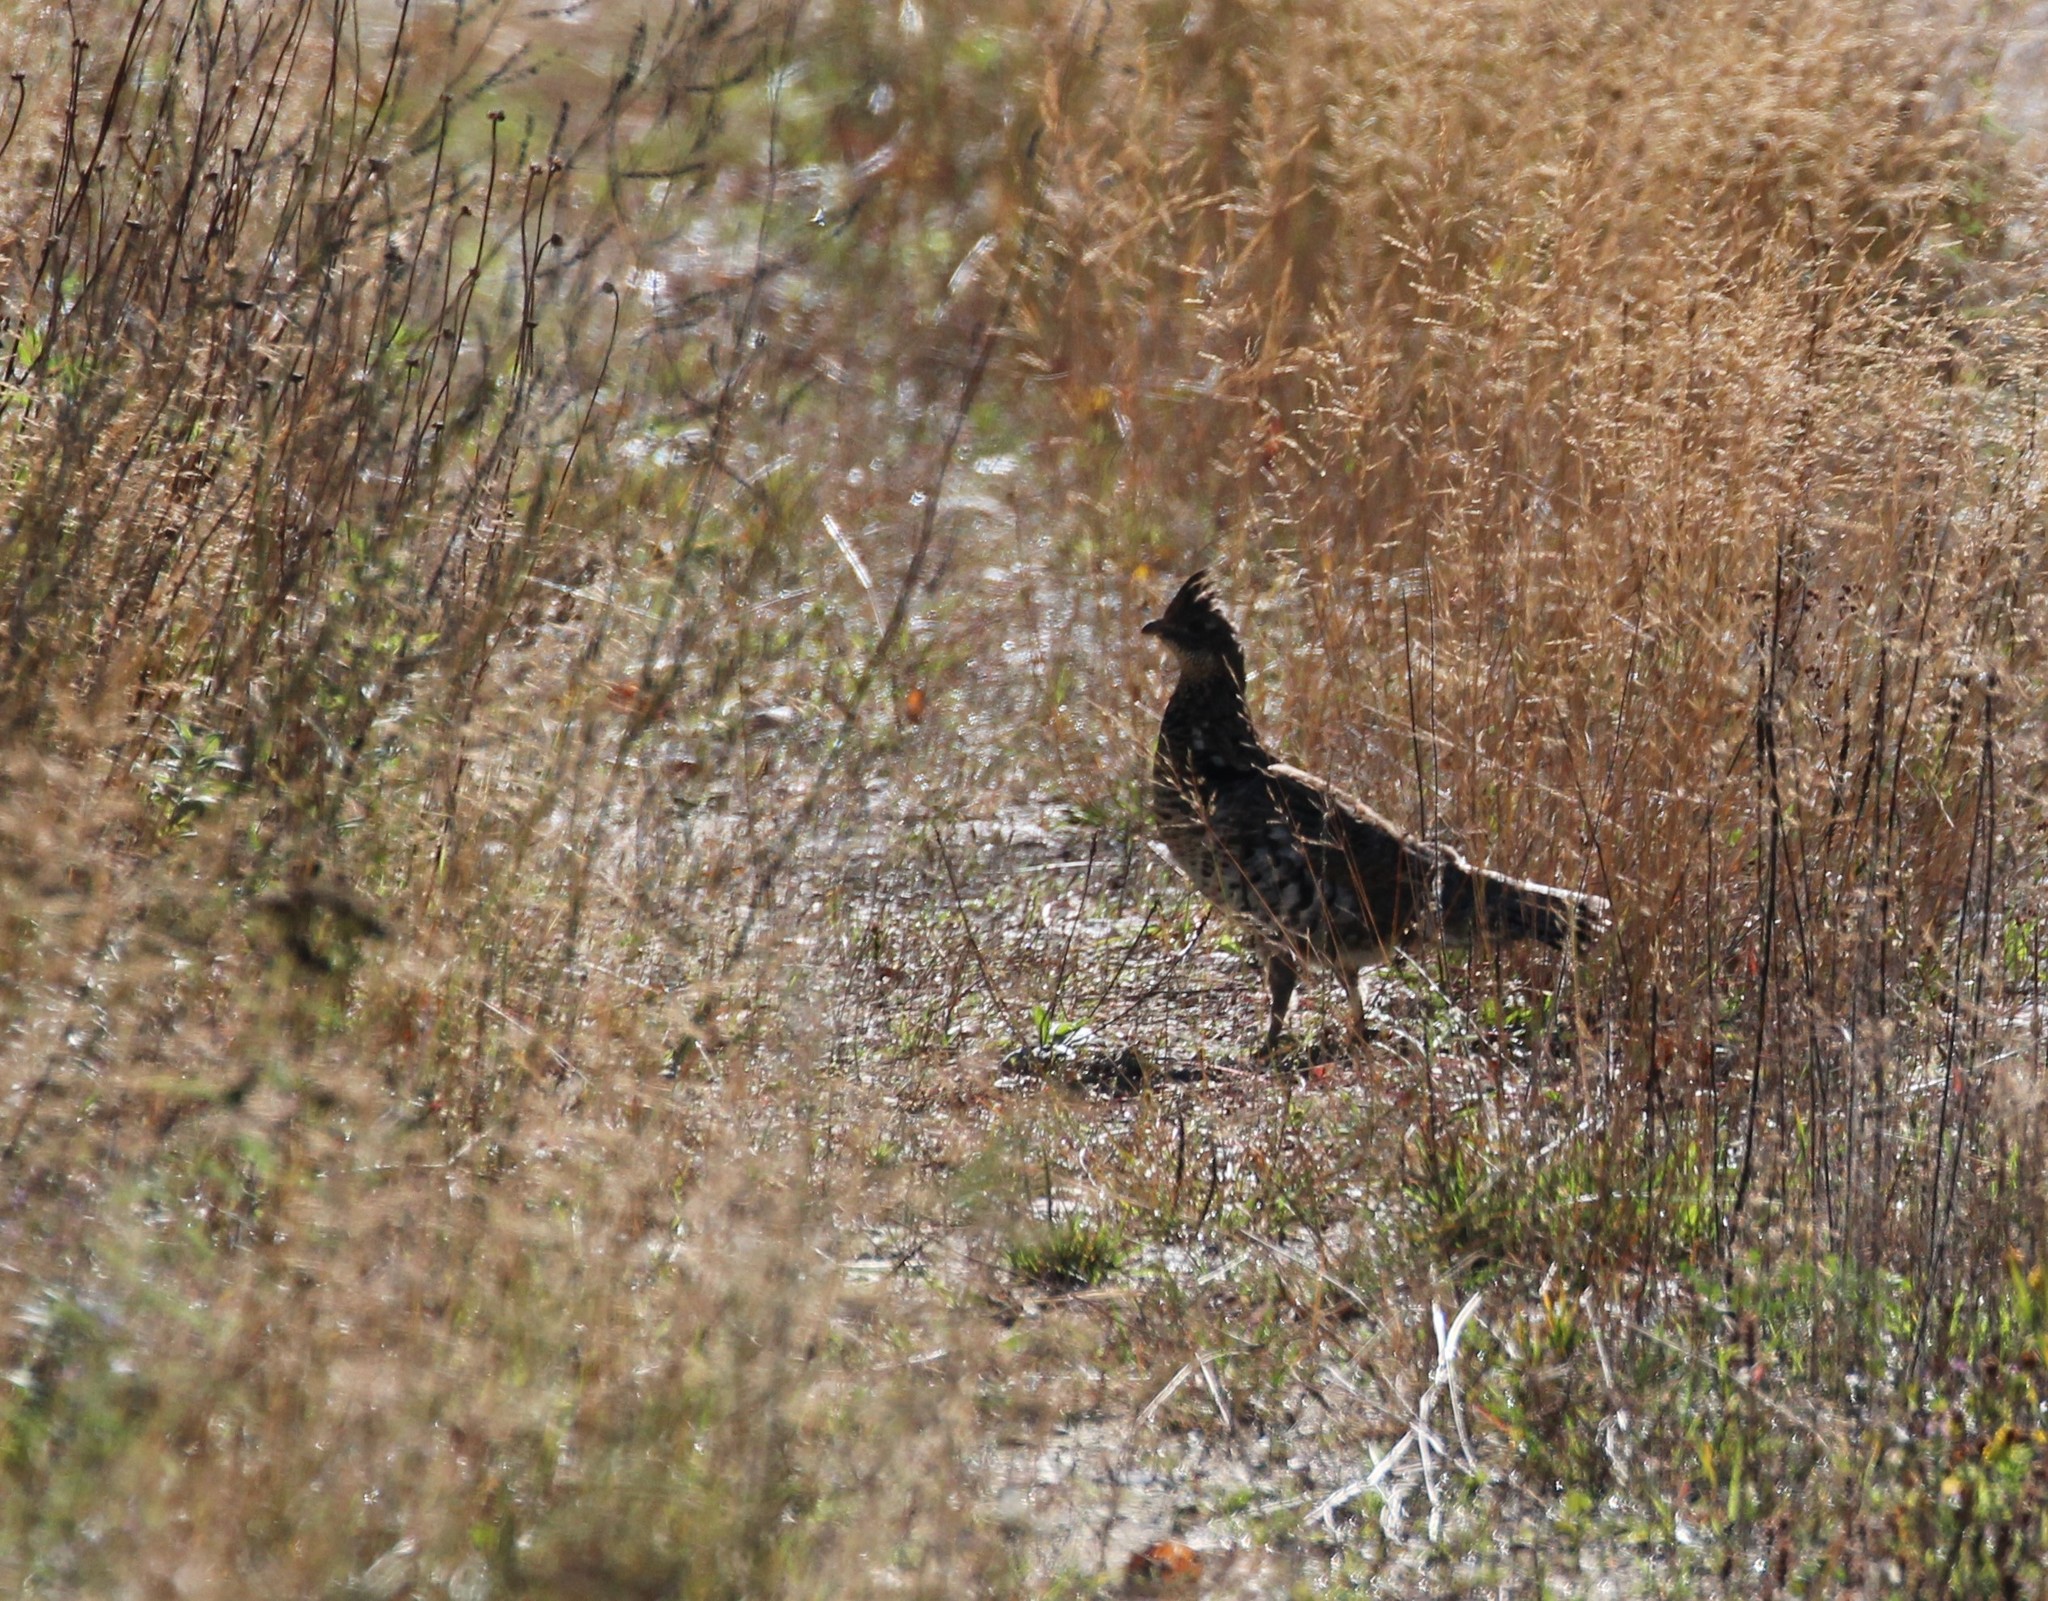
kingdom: Animalia
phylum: Chordata
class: Aves
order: Galliformes
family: Phasianidae
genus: Bonasa
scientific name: Bonasa umbellus
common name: Ruffed grouse
